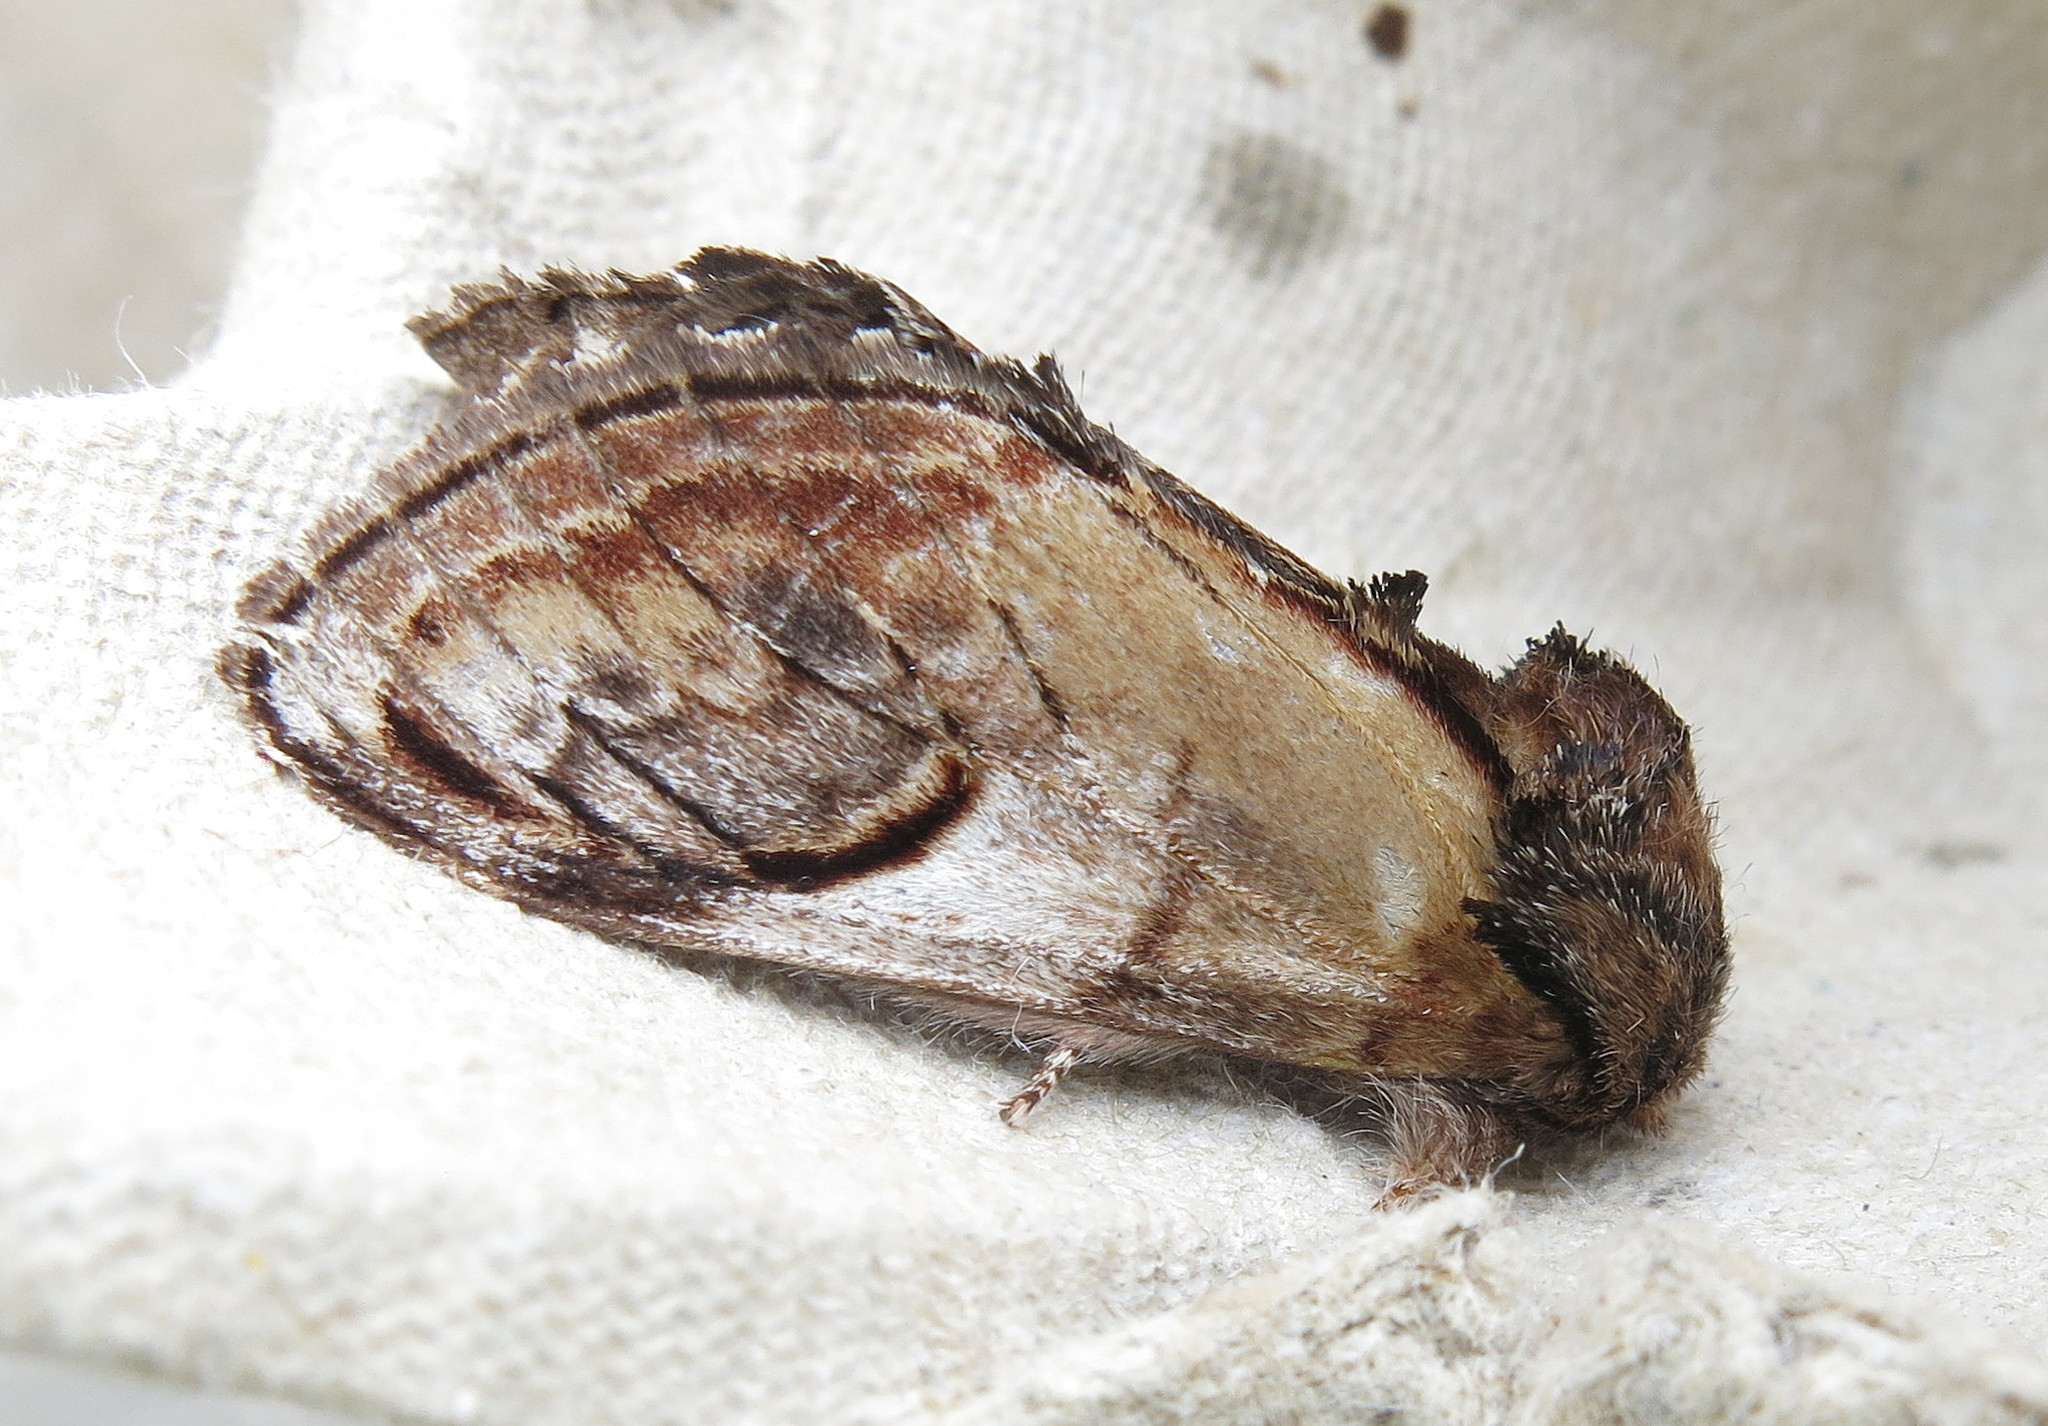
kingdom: Animalia
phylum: Arthropoda
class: Insecta
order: Lepidoptera
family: Notodontidae
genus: Notodonta
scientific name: Notodonta ziczac
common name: Pebble prominent
